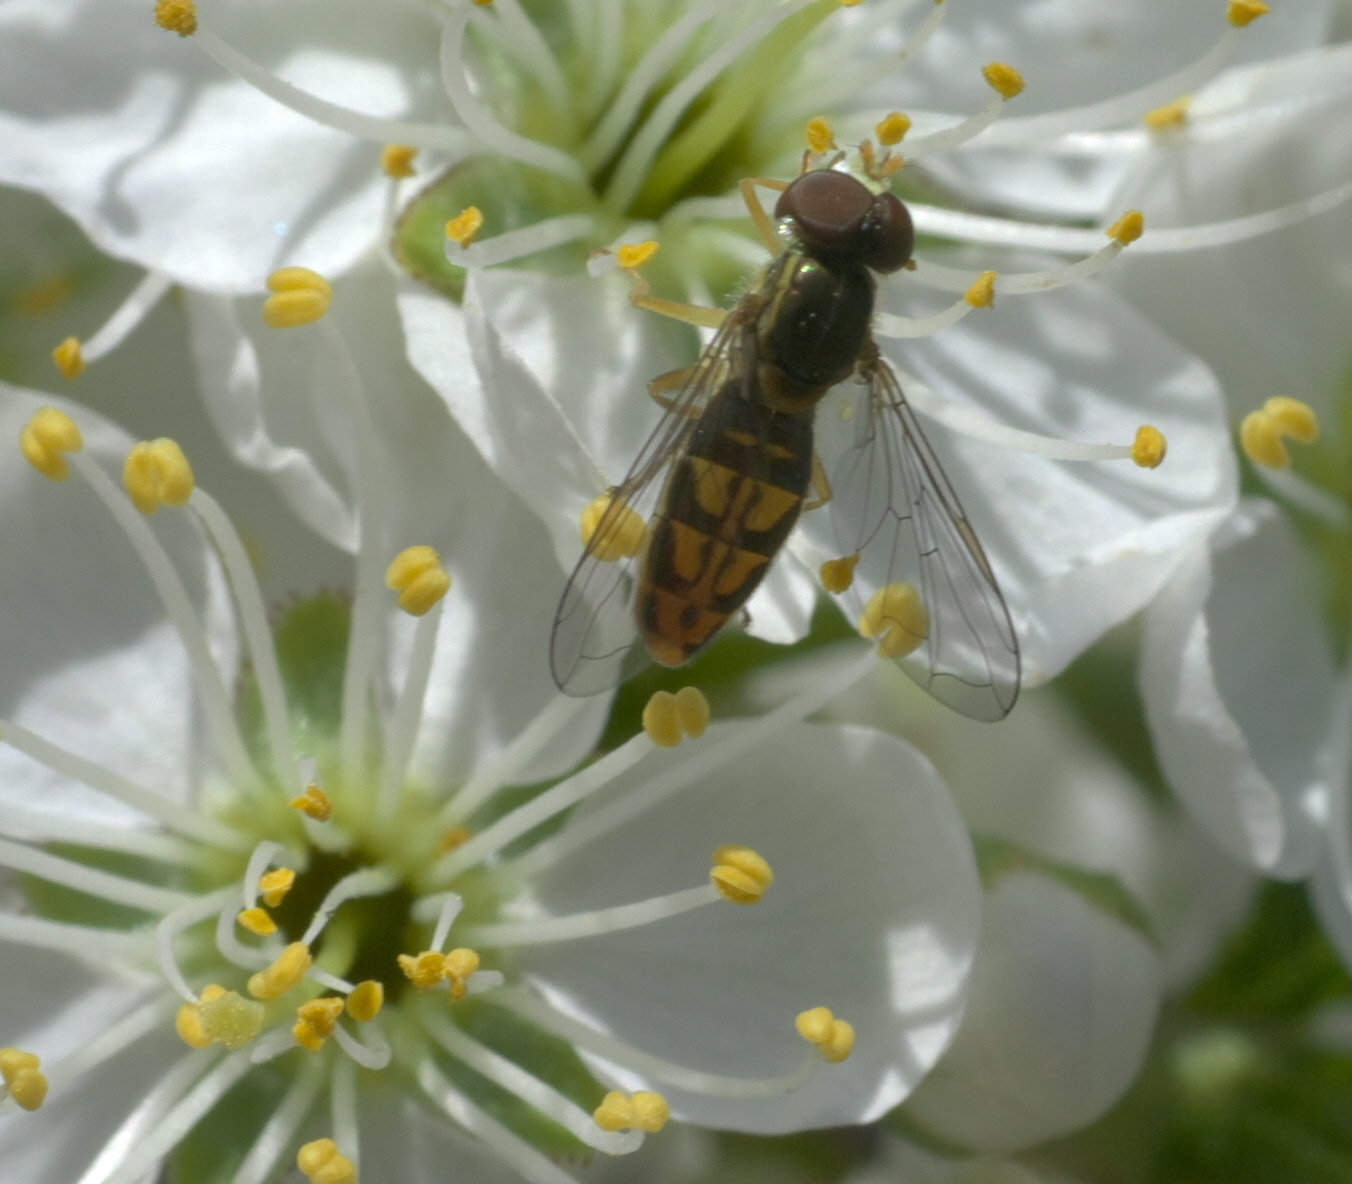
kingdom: Animalia
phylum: Arthropoda
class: Insecta
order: Diptera
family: Syrphidae
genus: Toxomerus
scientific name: Toxomerus marginatus
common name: Syrphid fly
